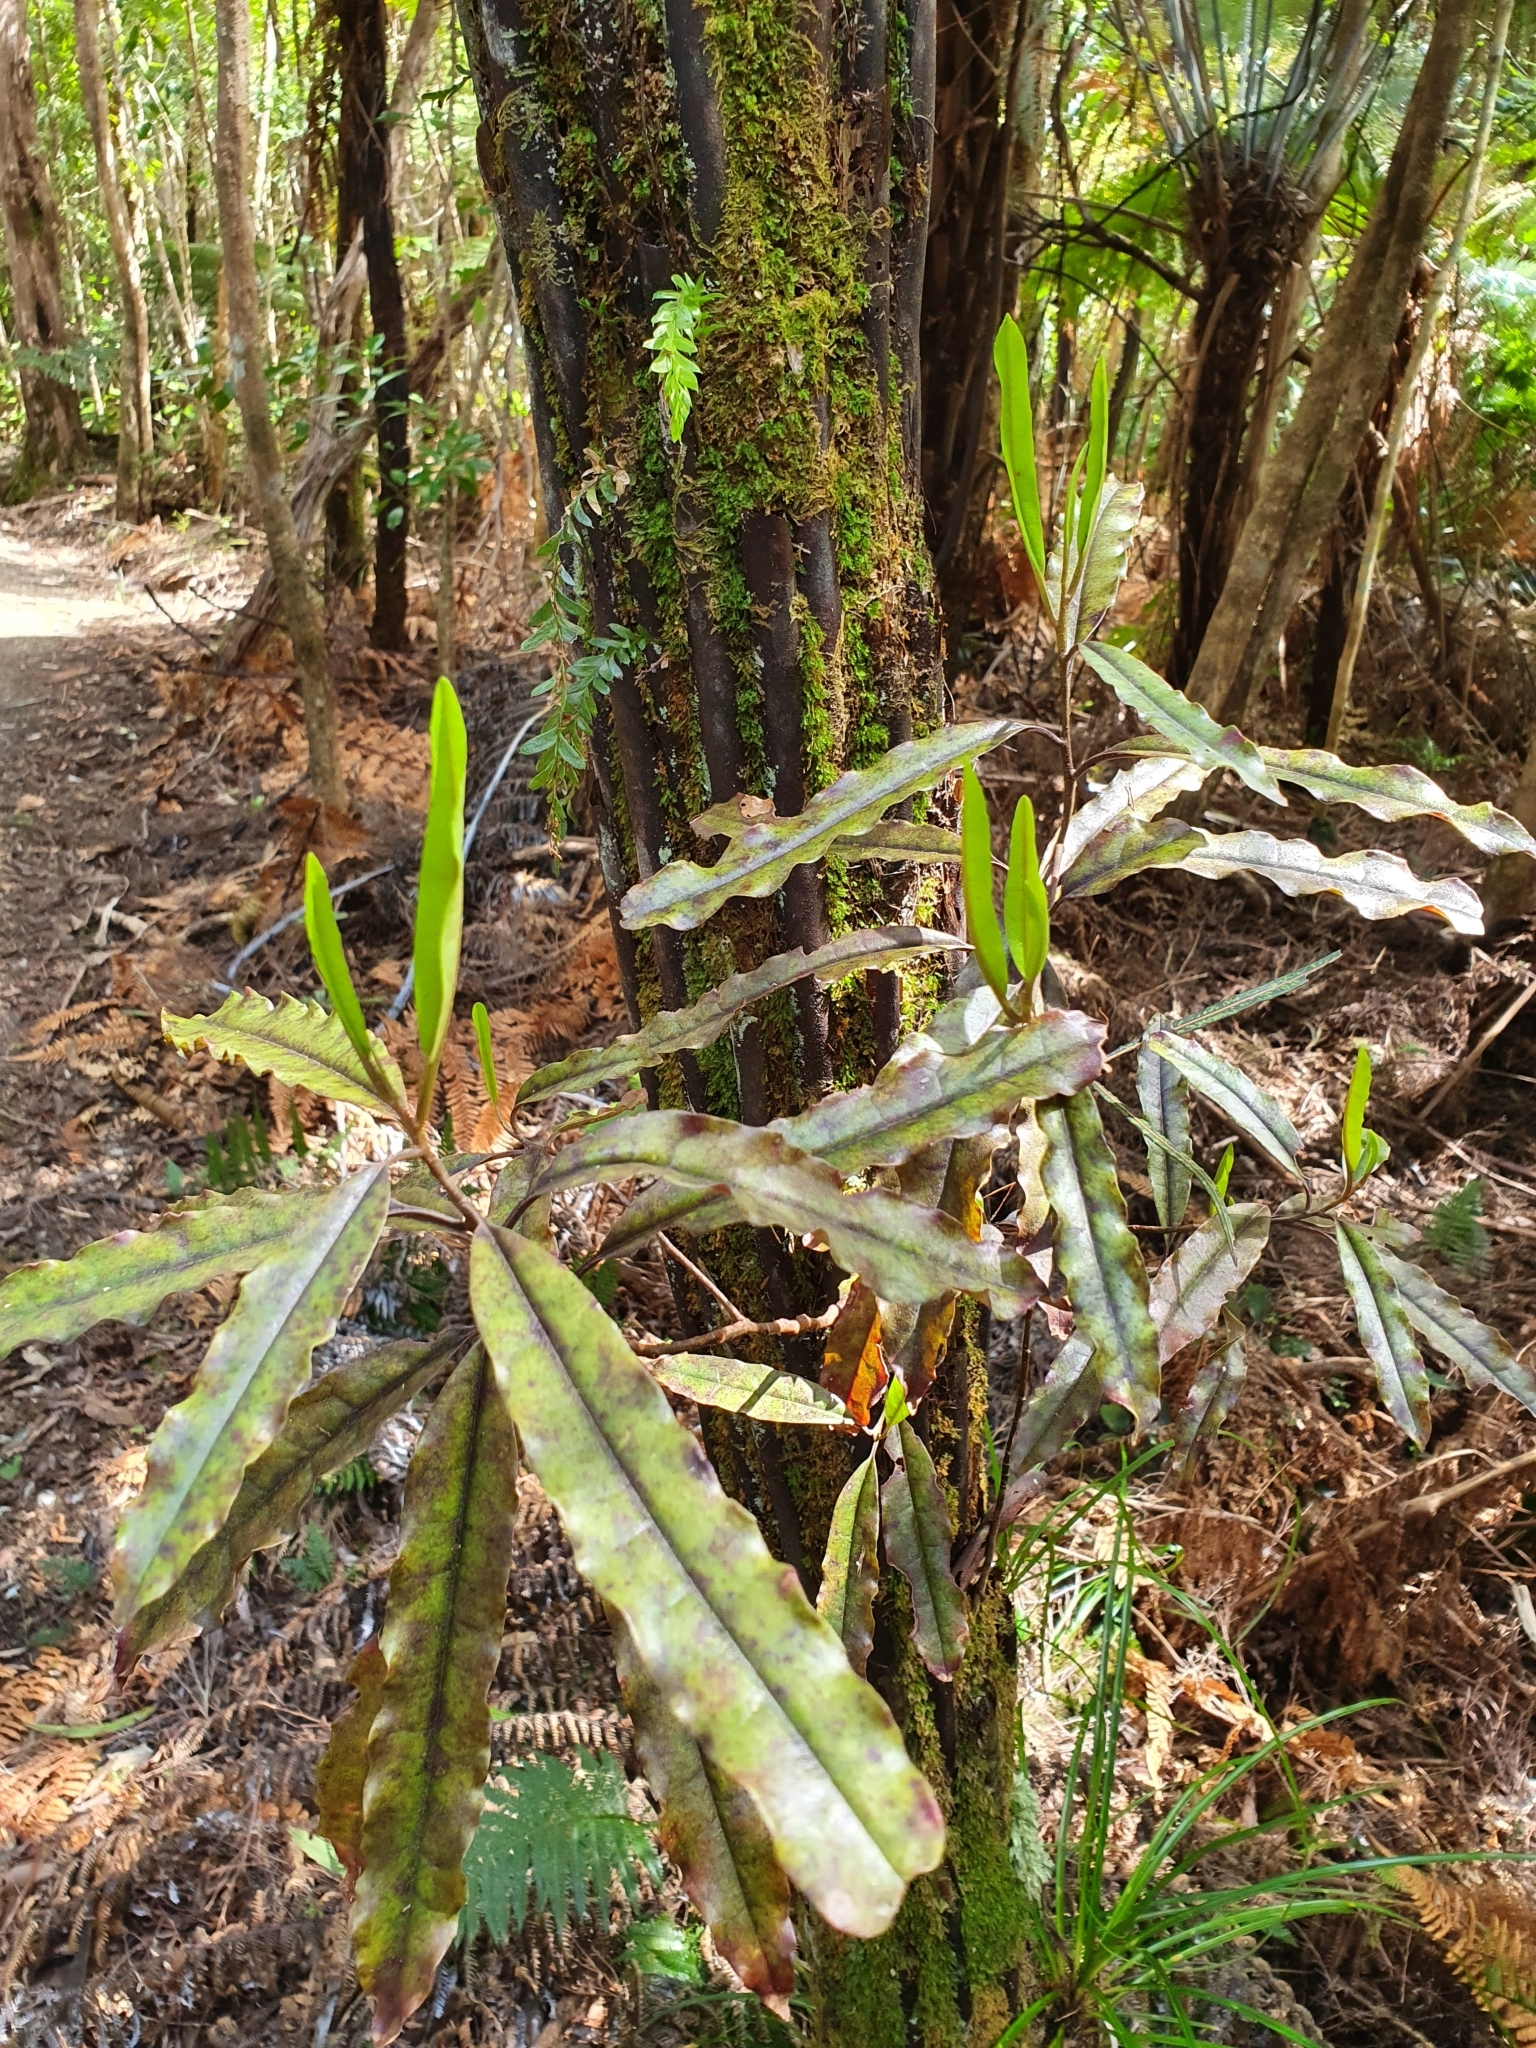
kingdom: Plantae
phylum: Tracheophyta
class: Magnoliopsida
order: Paracryphiales
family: Paracryphiaceae
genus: Quintinia
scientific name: Quintinia serrata
